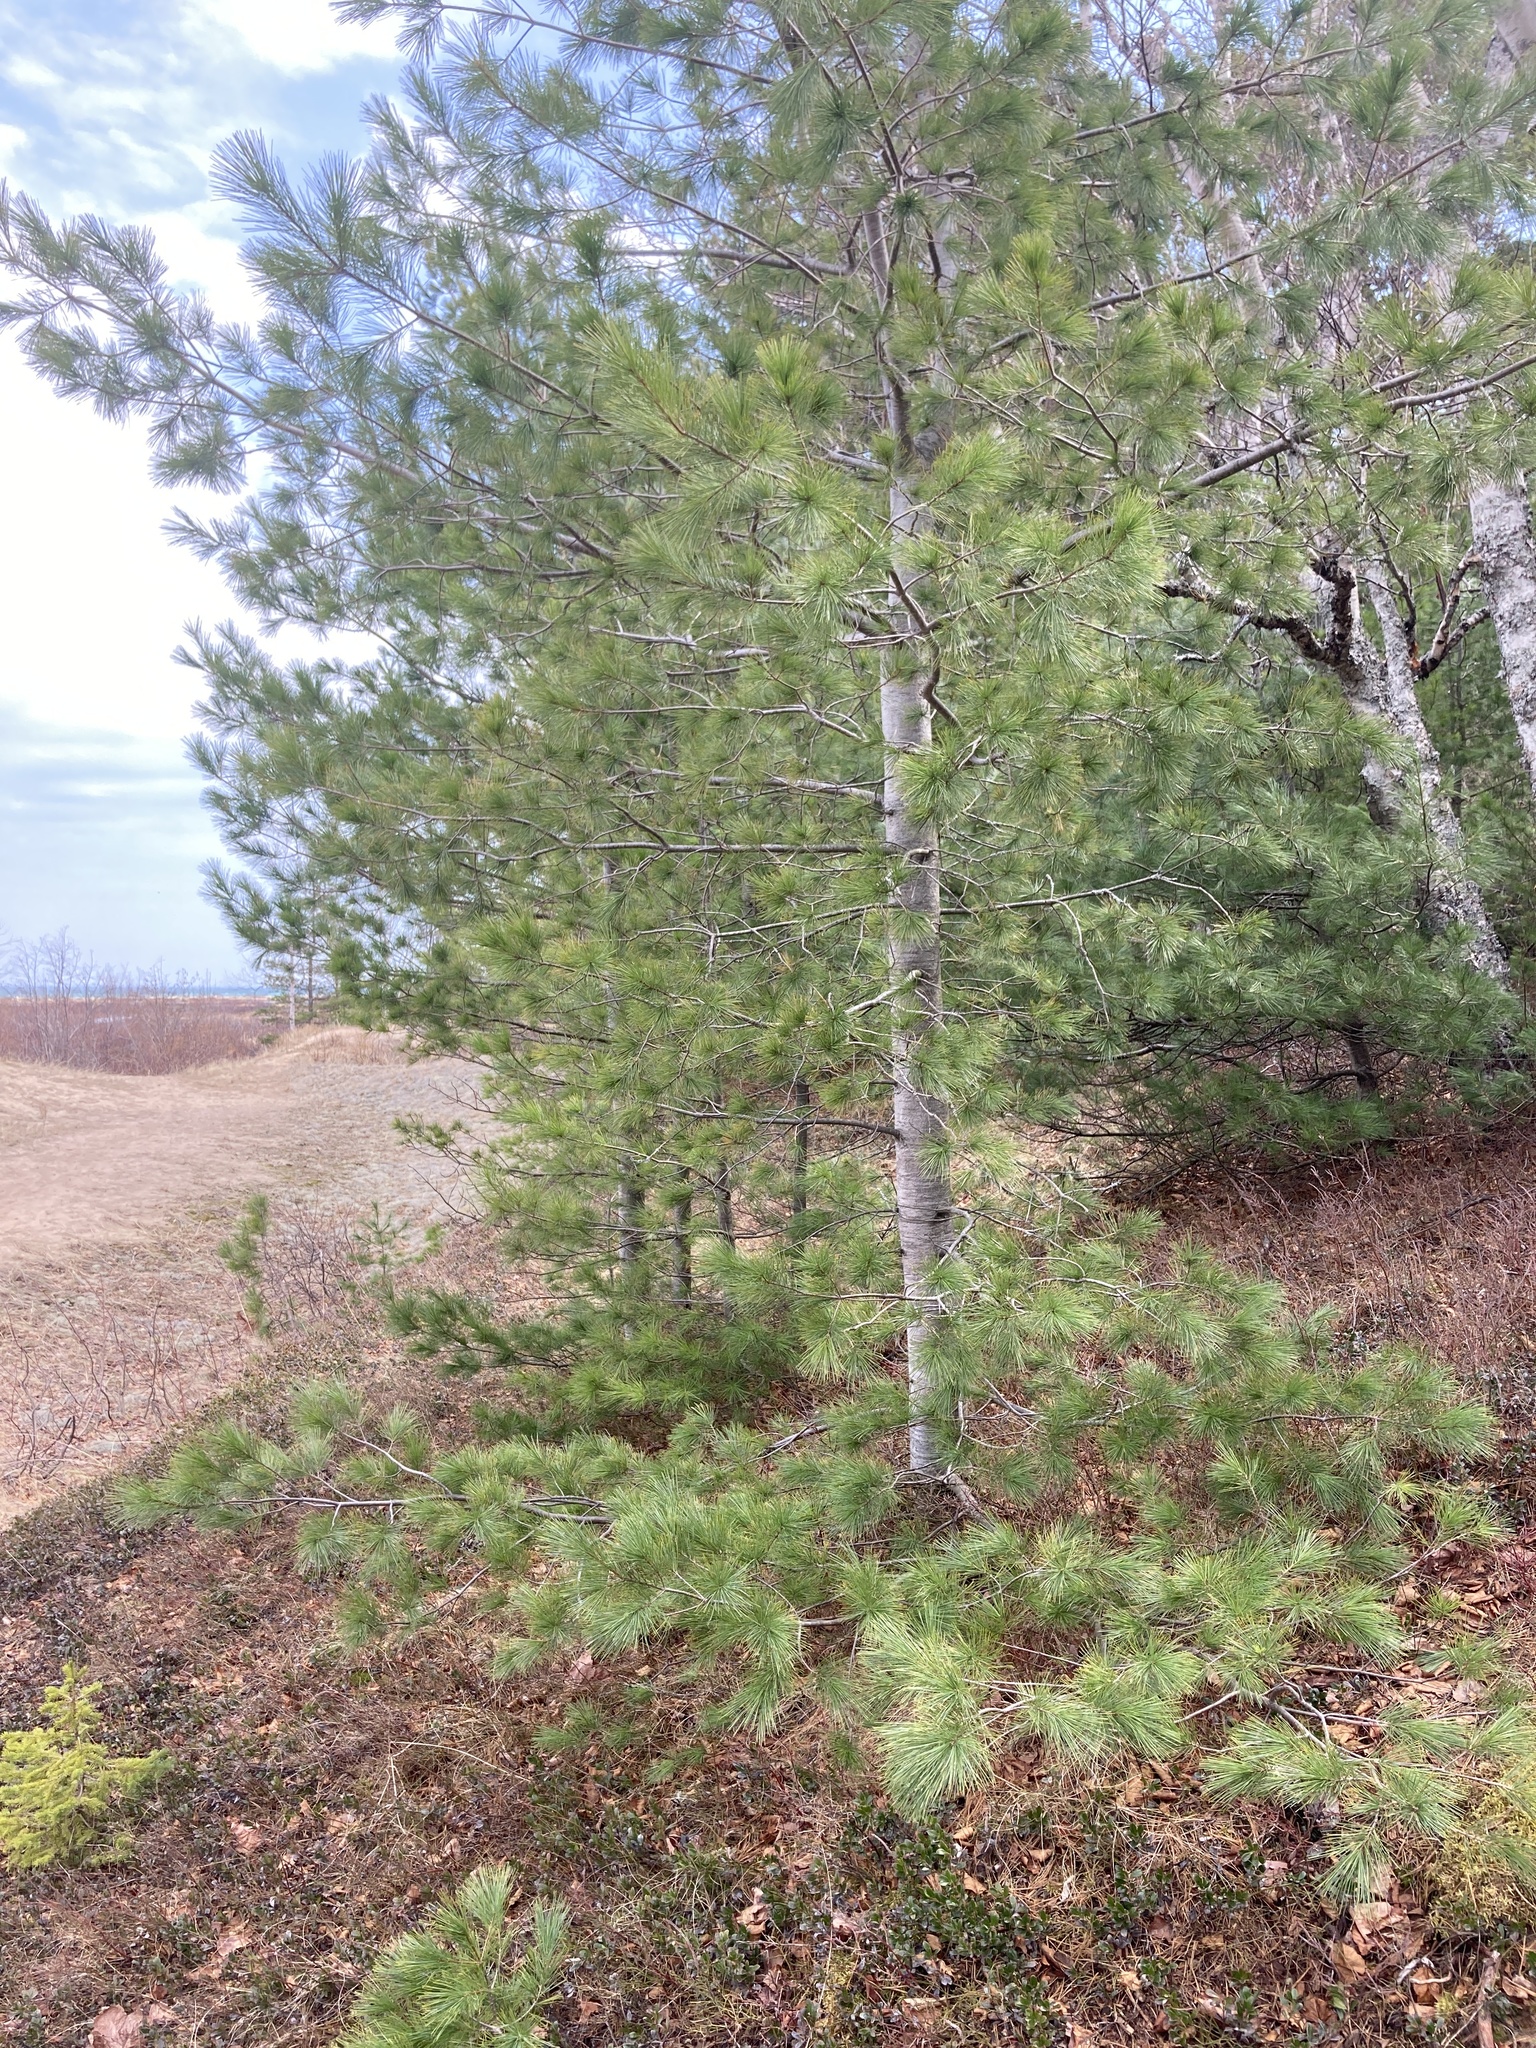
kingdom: Plantae
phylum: Tracheophyta
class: Pinopsida
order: Pinales
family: Pinaceae
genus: Pinus
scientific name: Pinus strobus
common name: Weymouth pine
